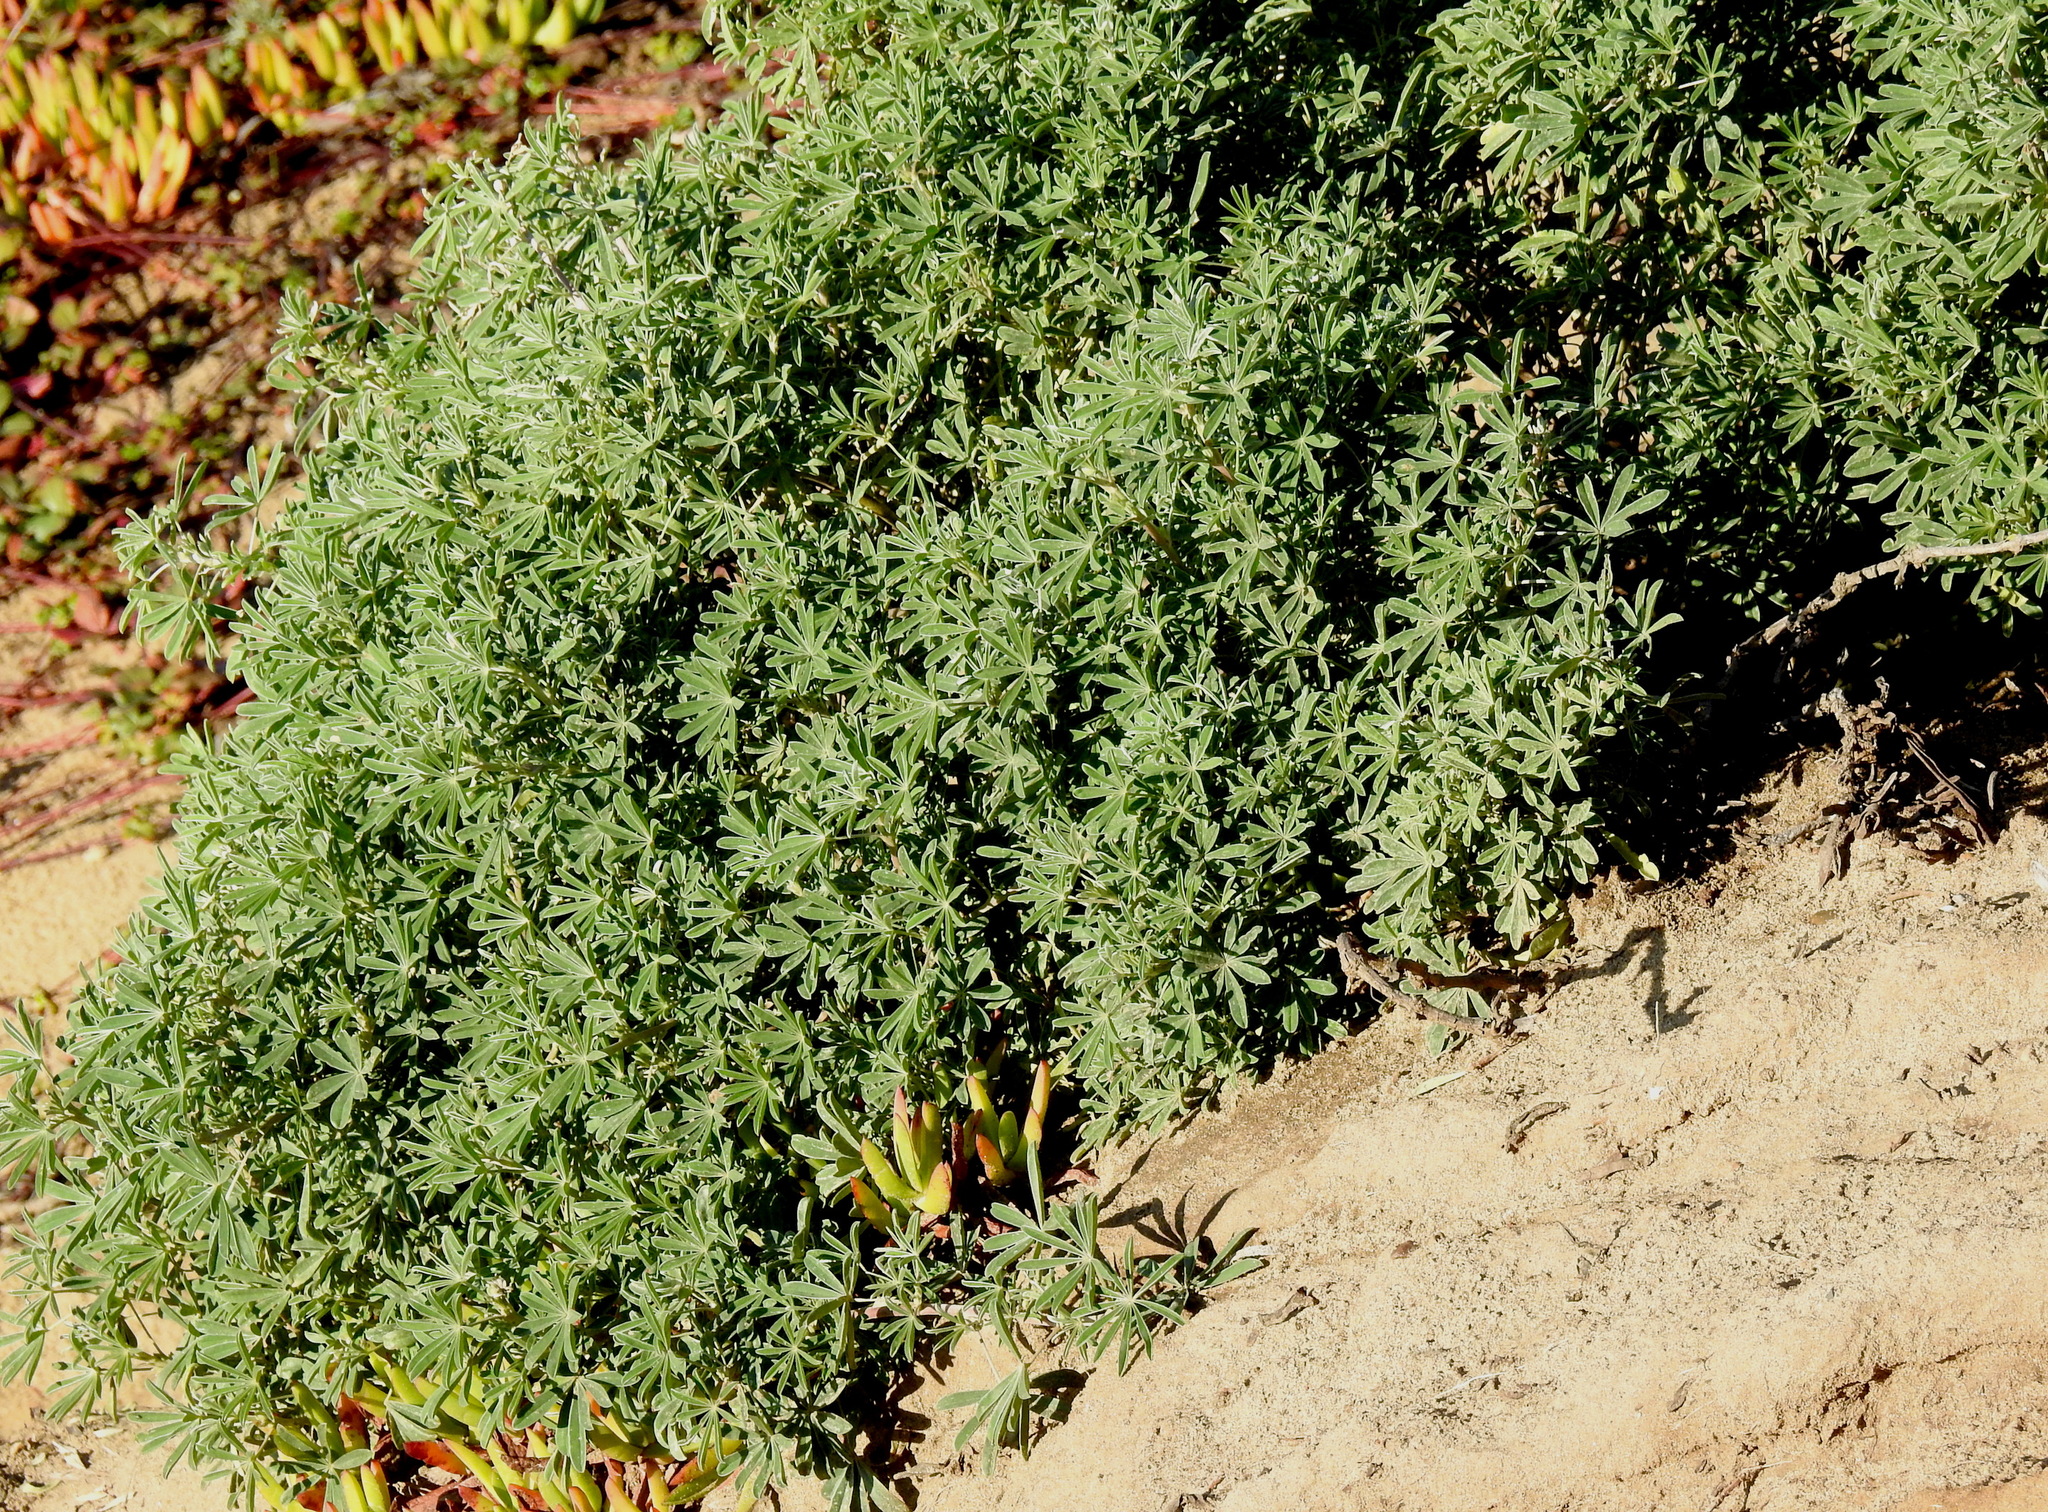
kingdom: Plantae
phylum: Tracheophyta
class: Magnoliopsida
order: Fabales
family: Fabaceae
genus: Lupinus
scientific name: Lupinus arboreus
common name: Yellow bush lupine
